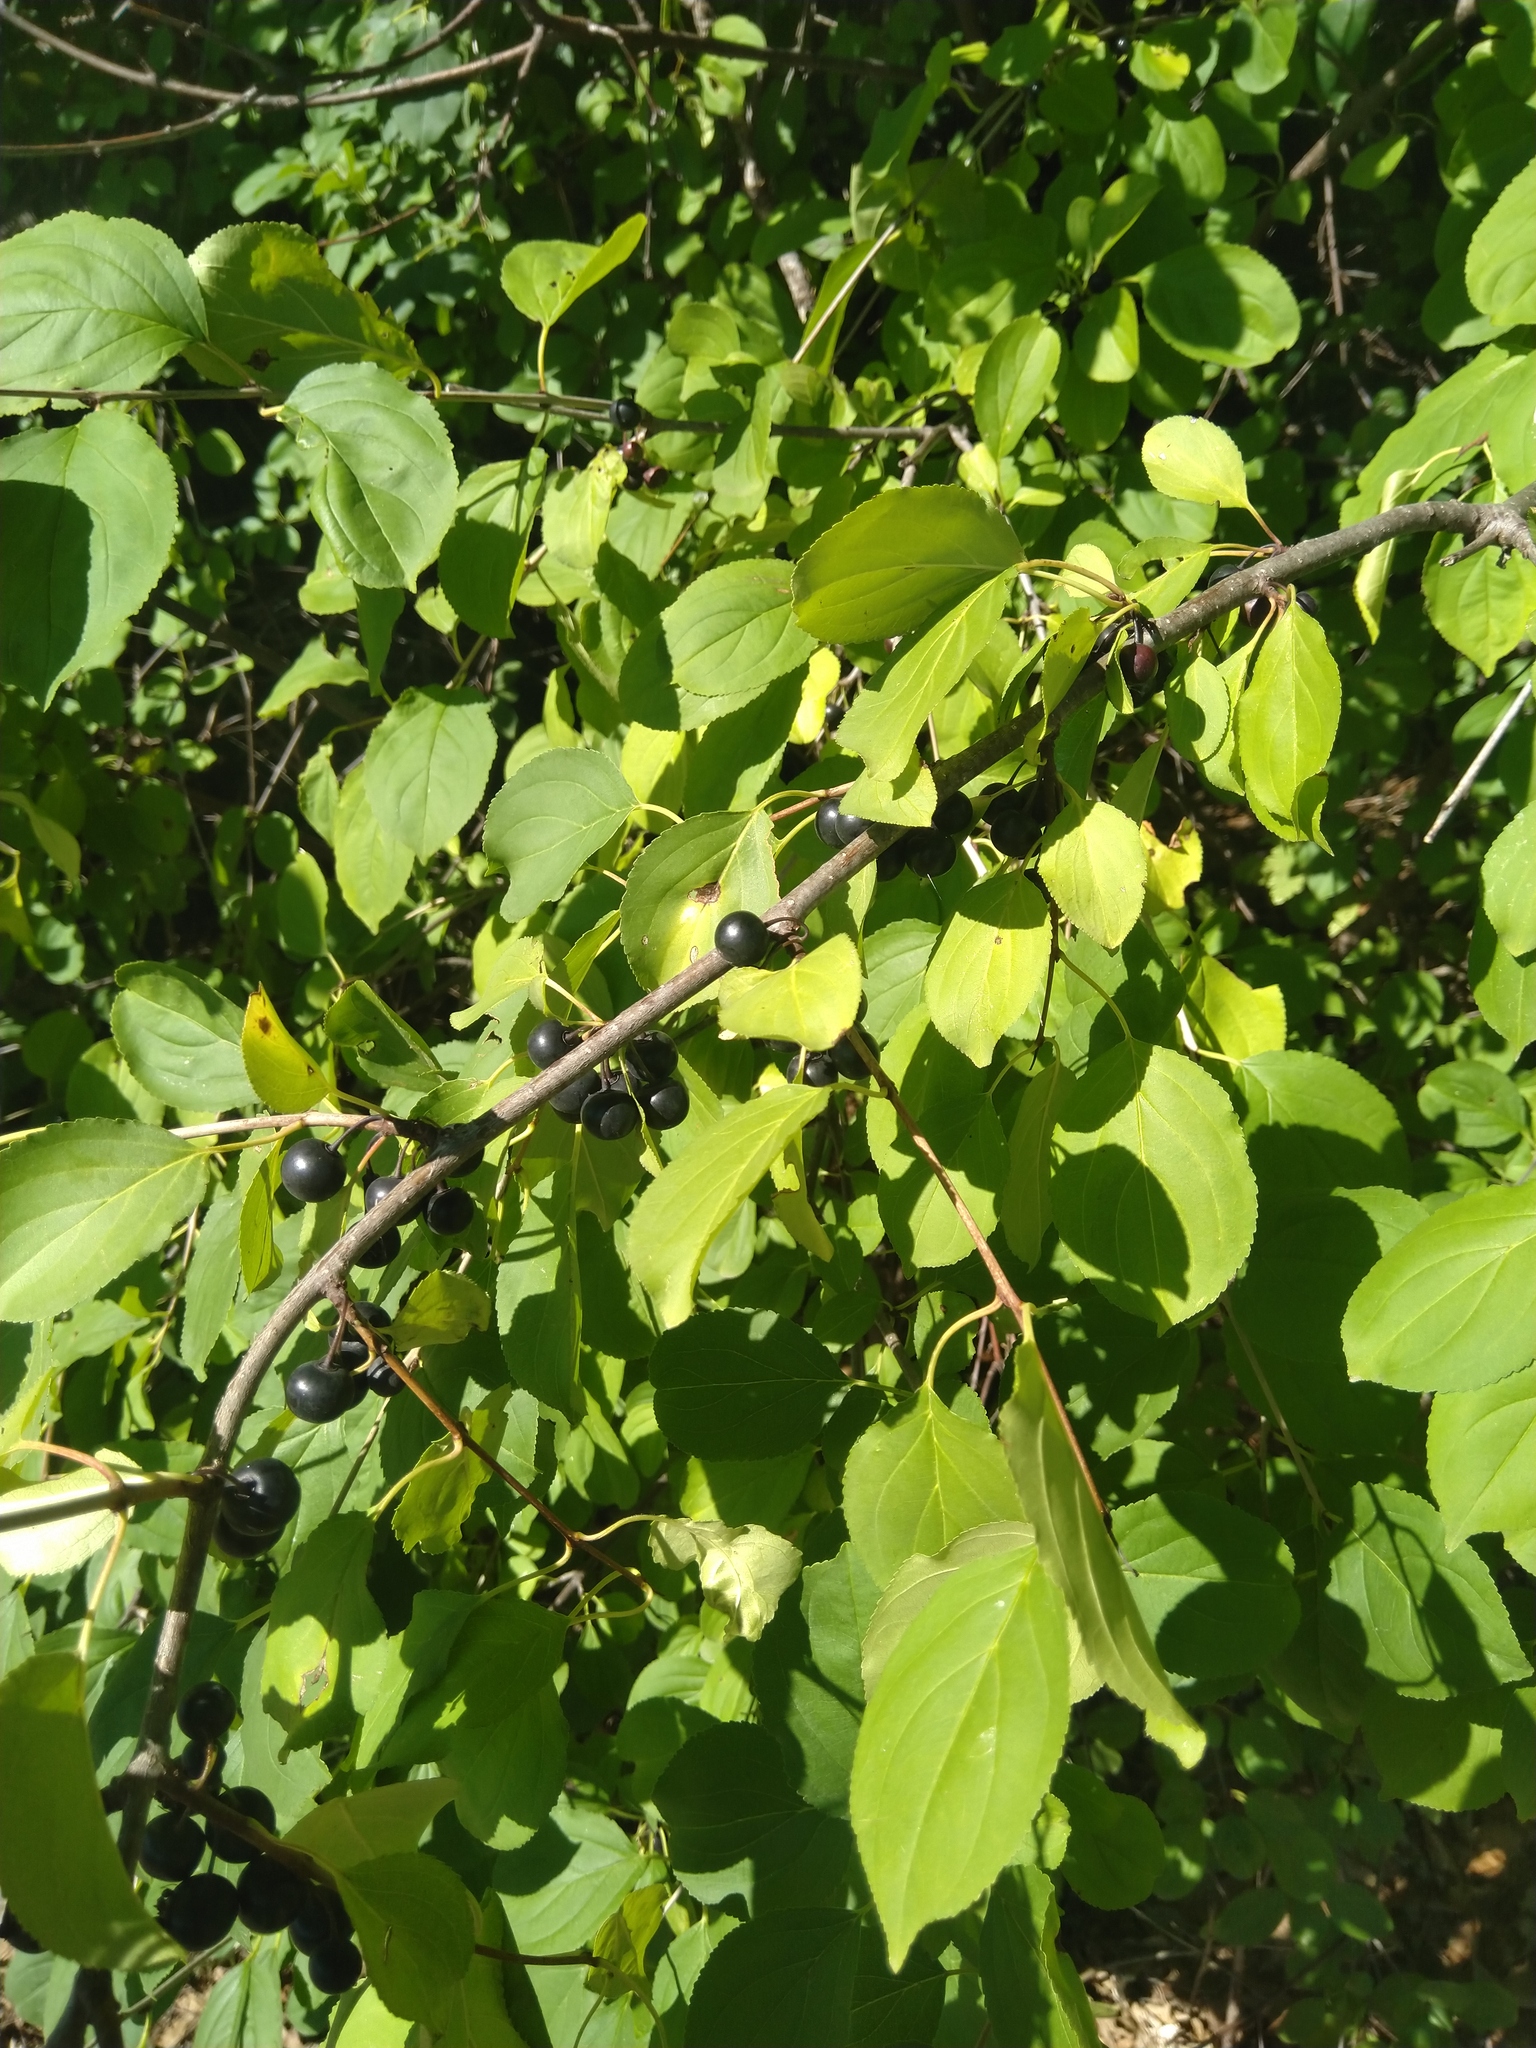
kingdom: Plantae
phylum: Tracheophyta
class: Magnoliopsida
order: Rosales
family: Rhamnaceae
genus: Rhamnus
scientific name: Rhamnus cathartica
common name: Common buckthorn
